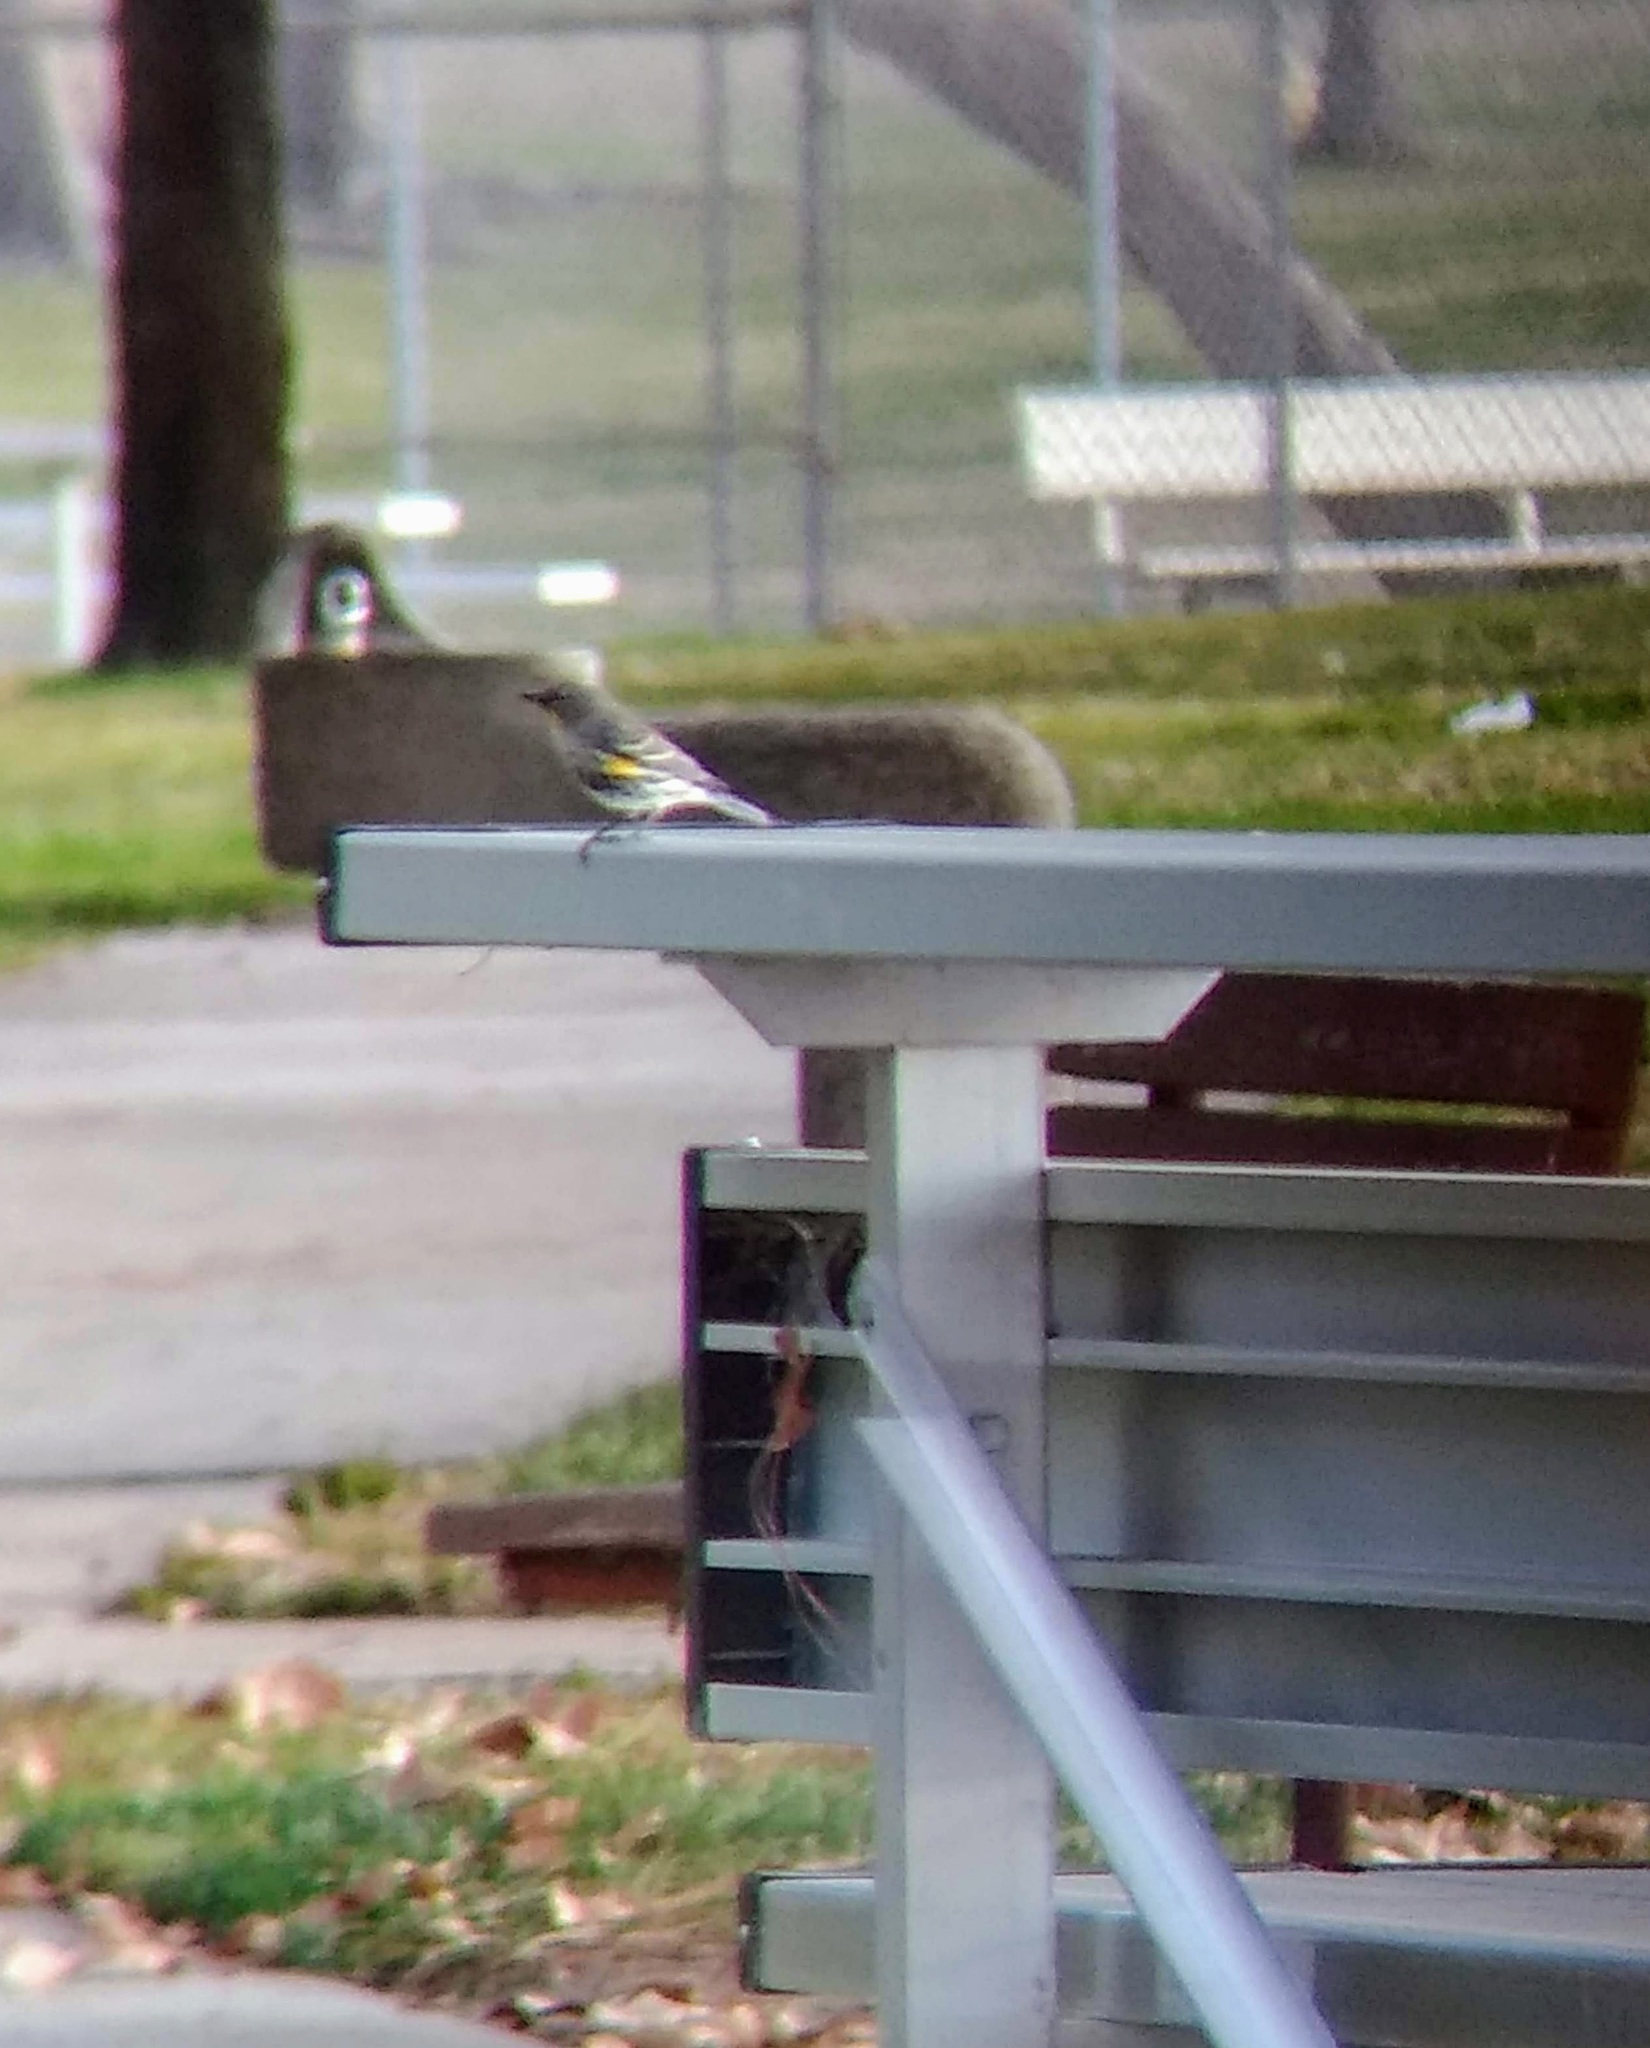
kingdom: Animalia
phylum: Chordata
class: Aves
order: Passeriformes
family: Parulidae
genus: Setophaga
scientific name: Setophaga coronata
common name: Myrtle warbler
